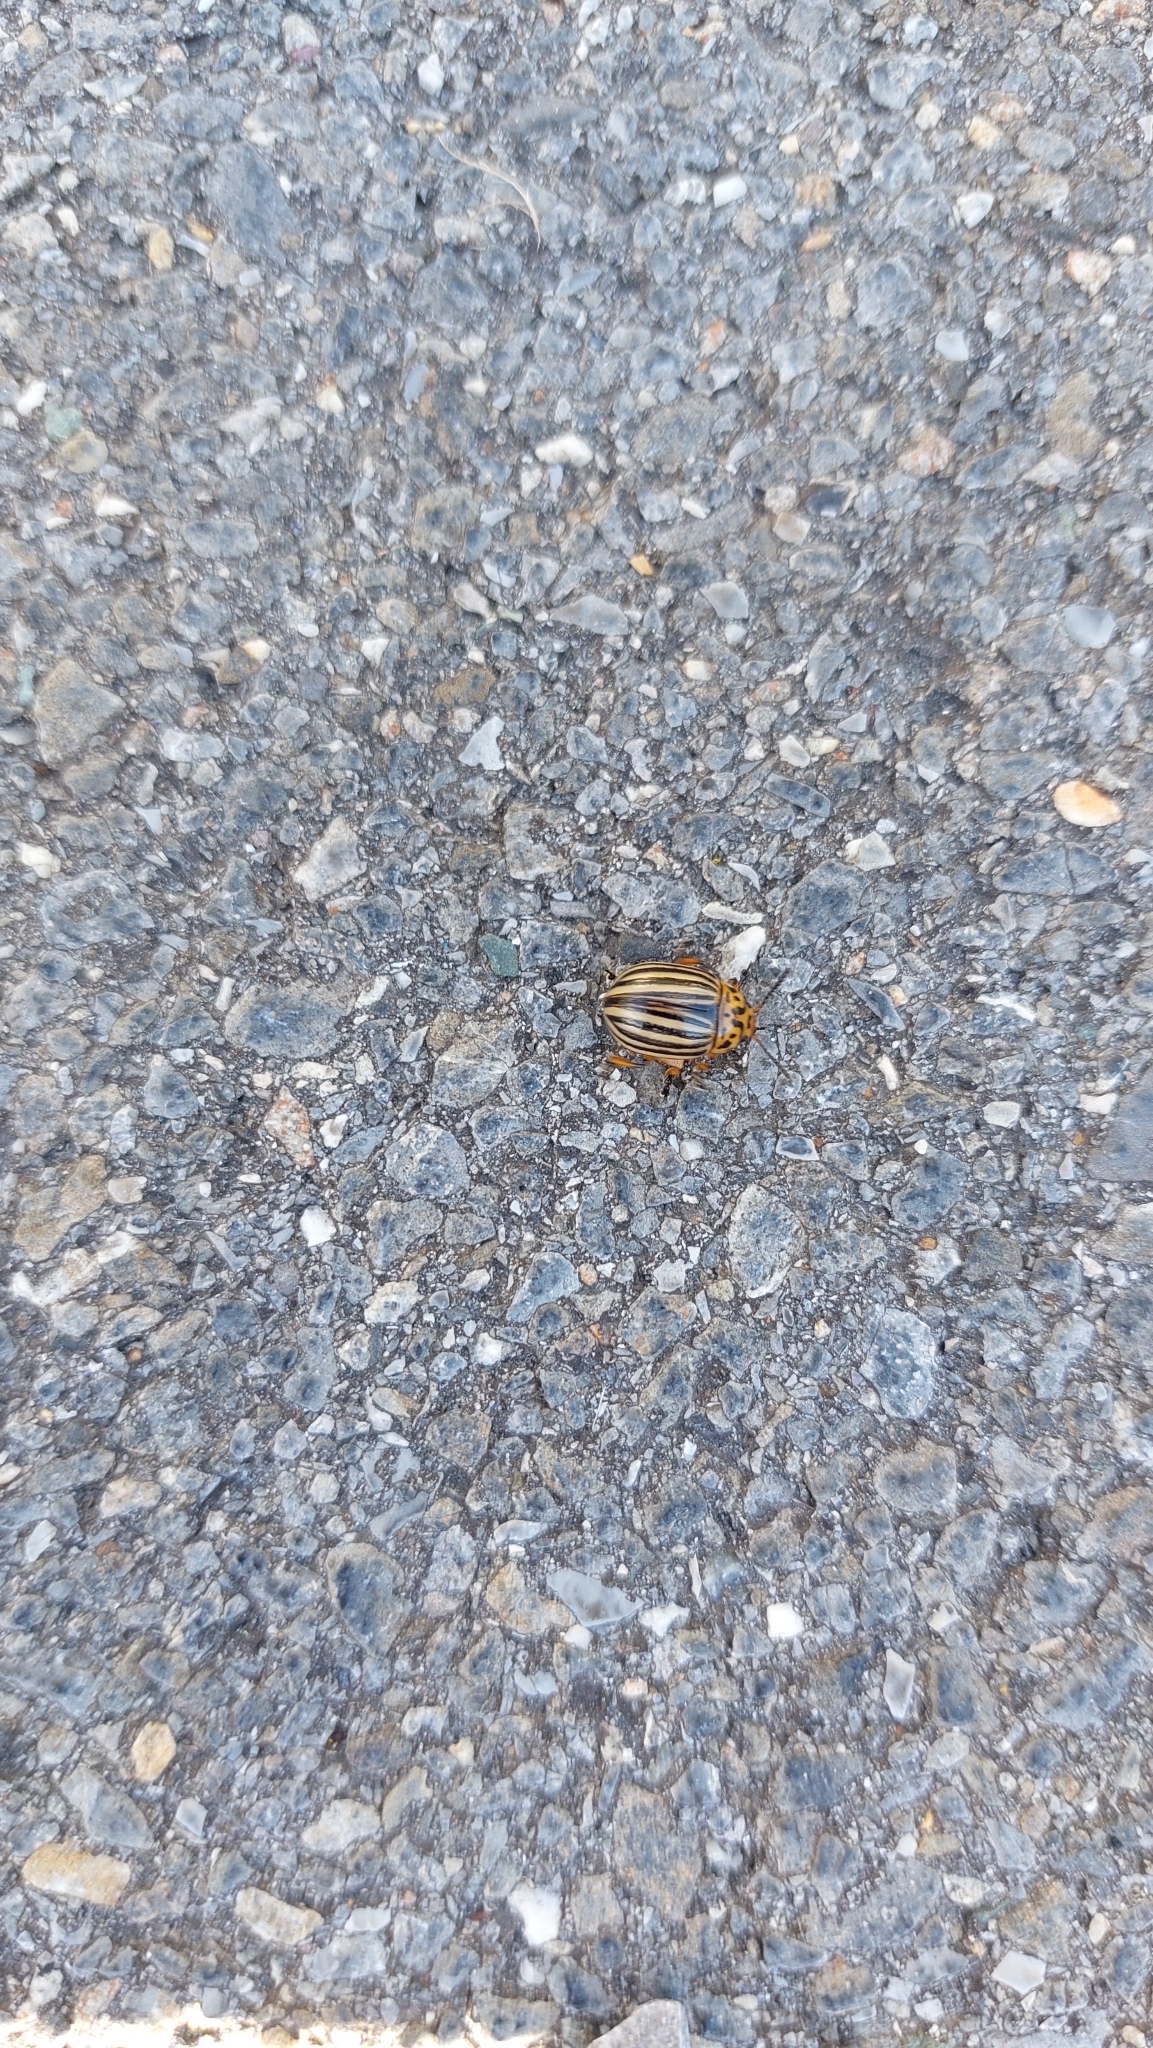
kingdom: Animalia
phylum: Arthropoda
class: Insecta
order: Coleoptera
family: Chrysomelidae
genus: Leptinotarsa
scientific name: Leptinotarsa decemlineata
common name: Colorado potato beetle
